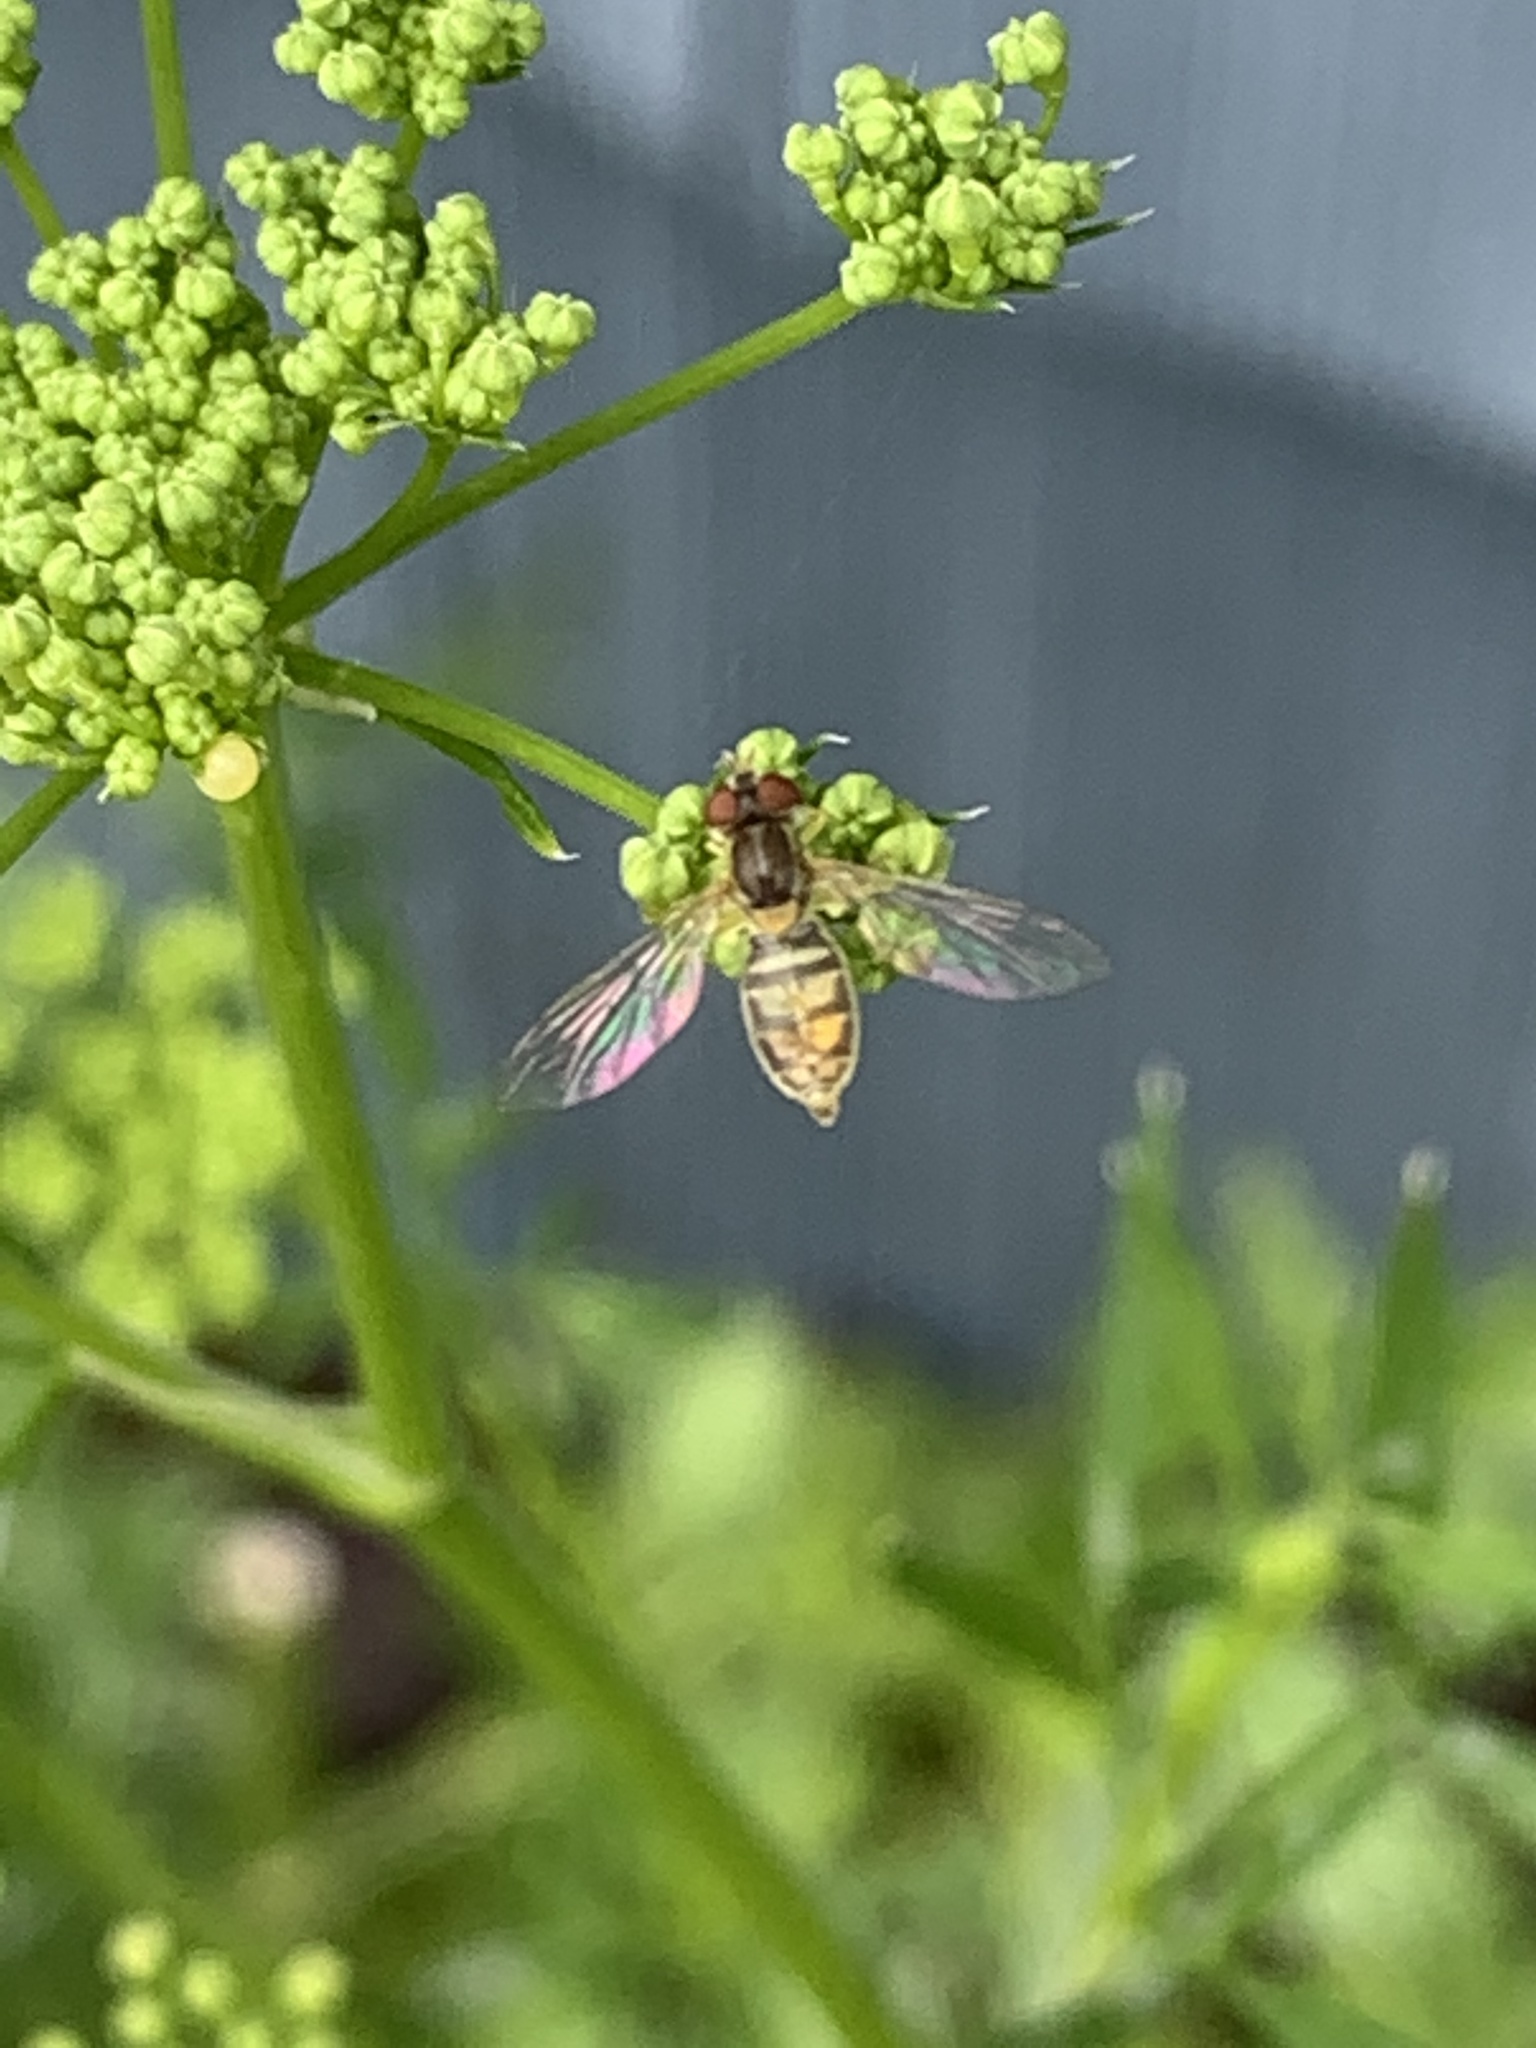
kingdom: Animalia
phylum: Arthropoda
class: Insecta
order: Diptera
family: Syrphidae
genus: Toxomerus
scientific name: Toxomerus marginatus
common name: Syrphid fly
